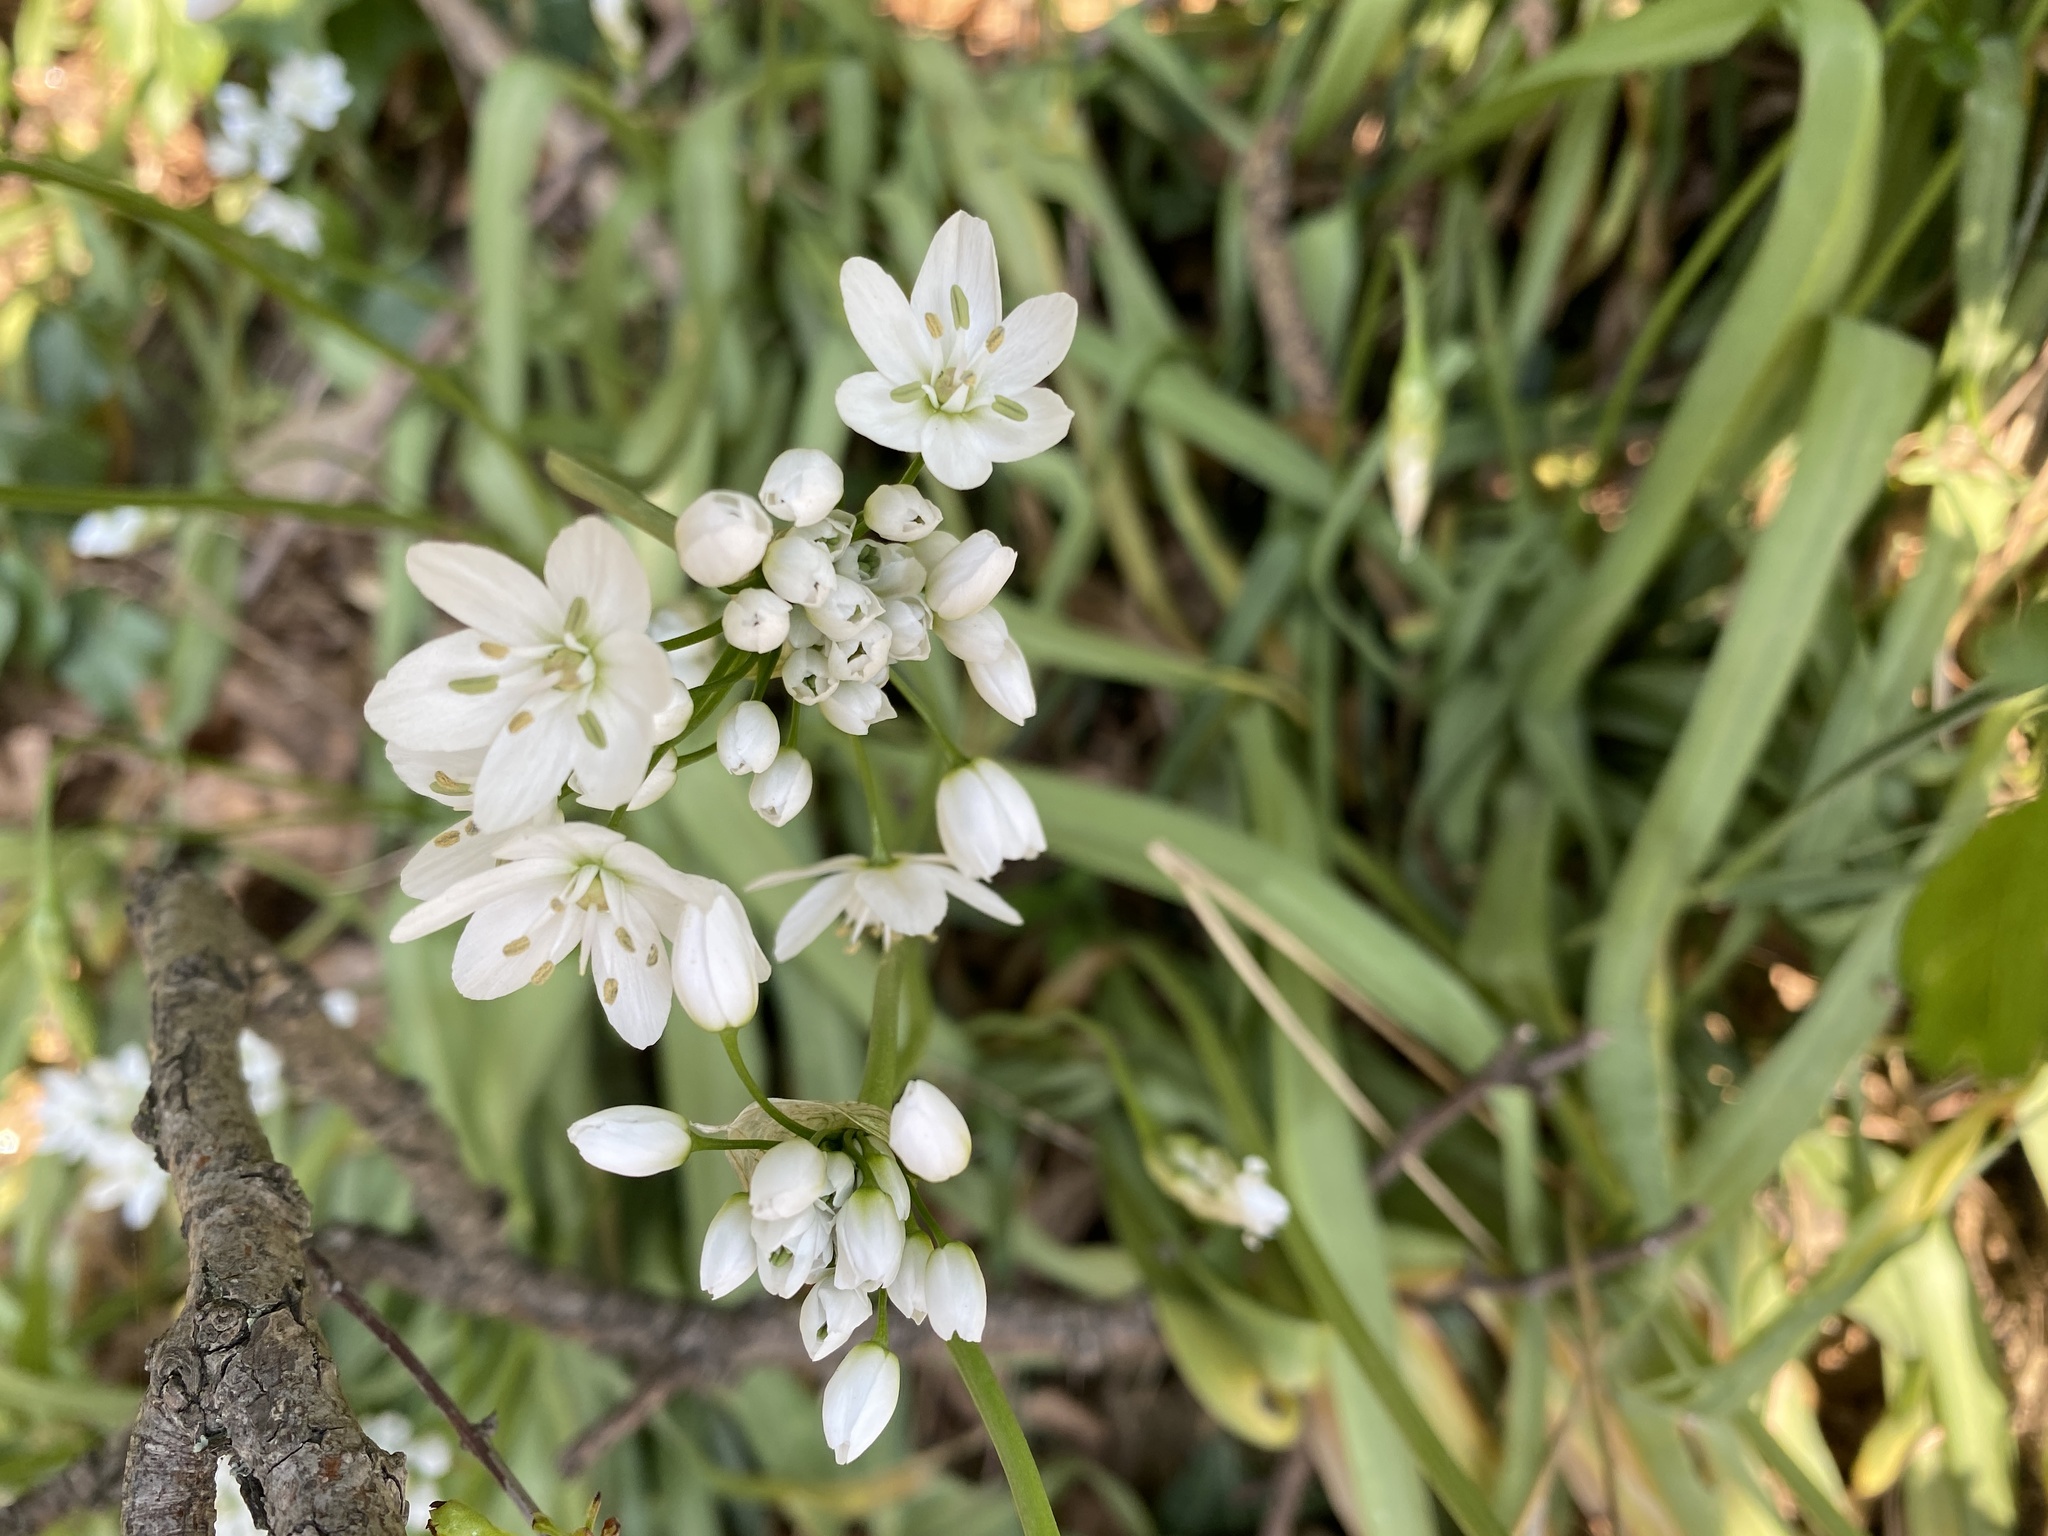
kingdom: Plantae
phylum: Tracheophyta
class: Liliopsida
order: Asparagales
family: Amaryllidaceae
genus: Allium
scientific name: Allium neapolitanum
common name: Neapolitan garlic
